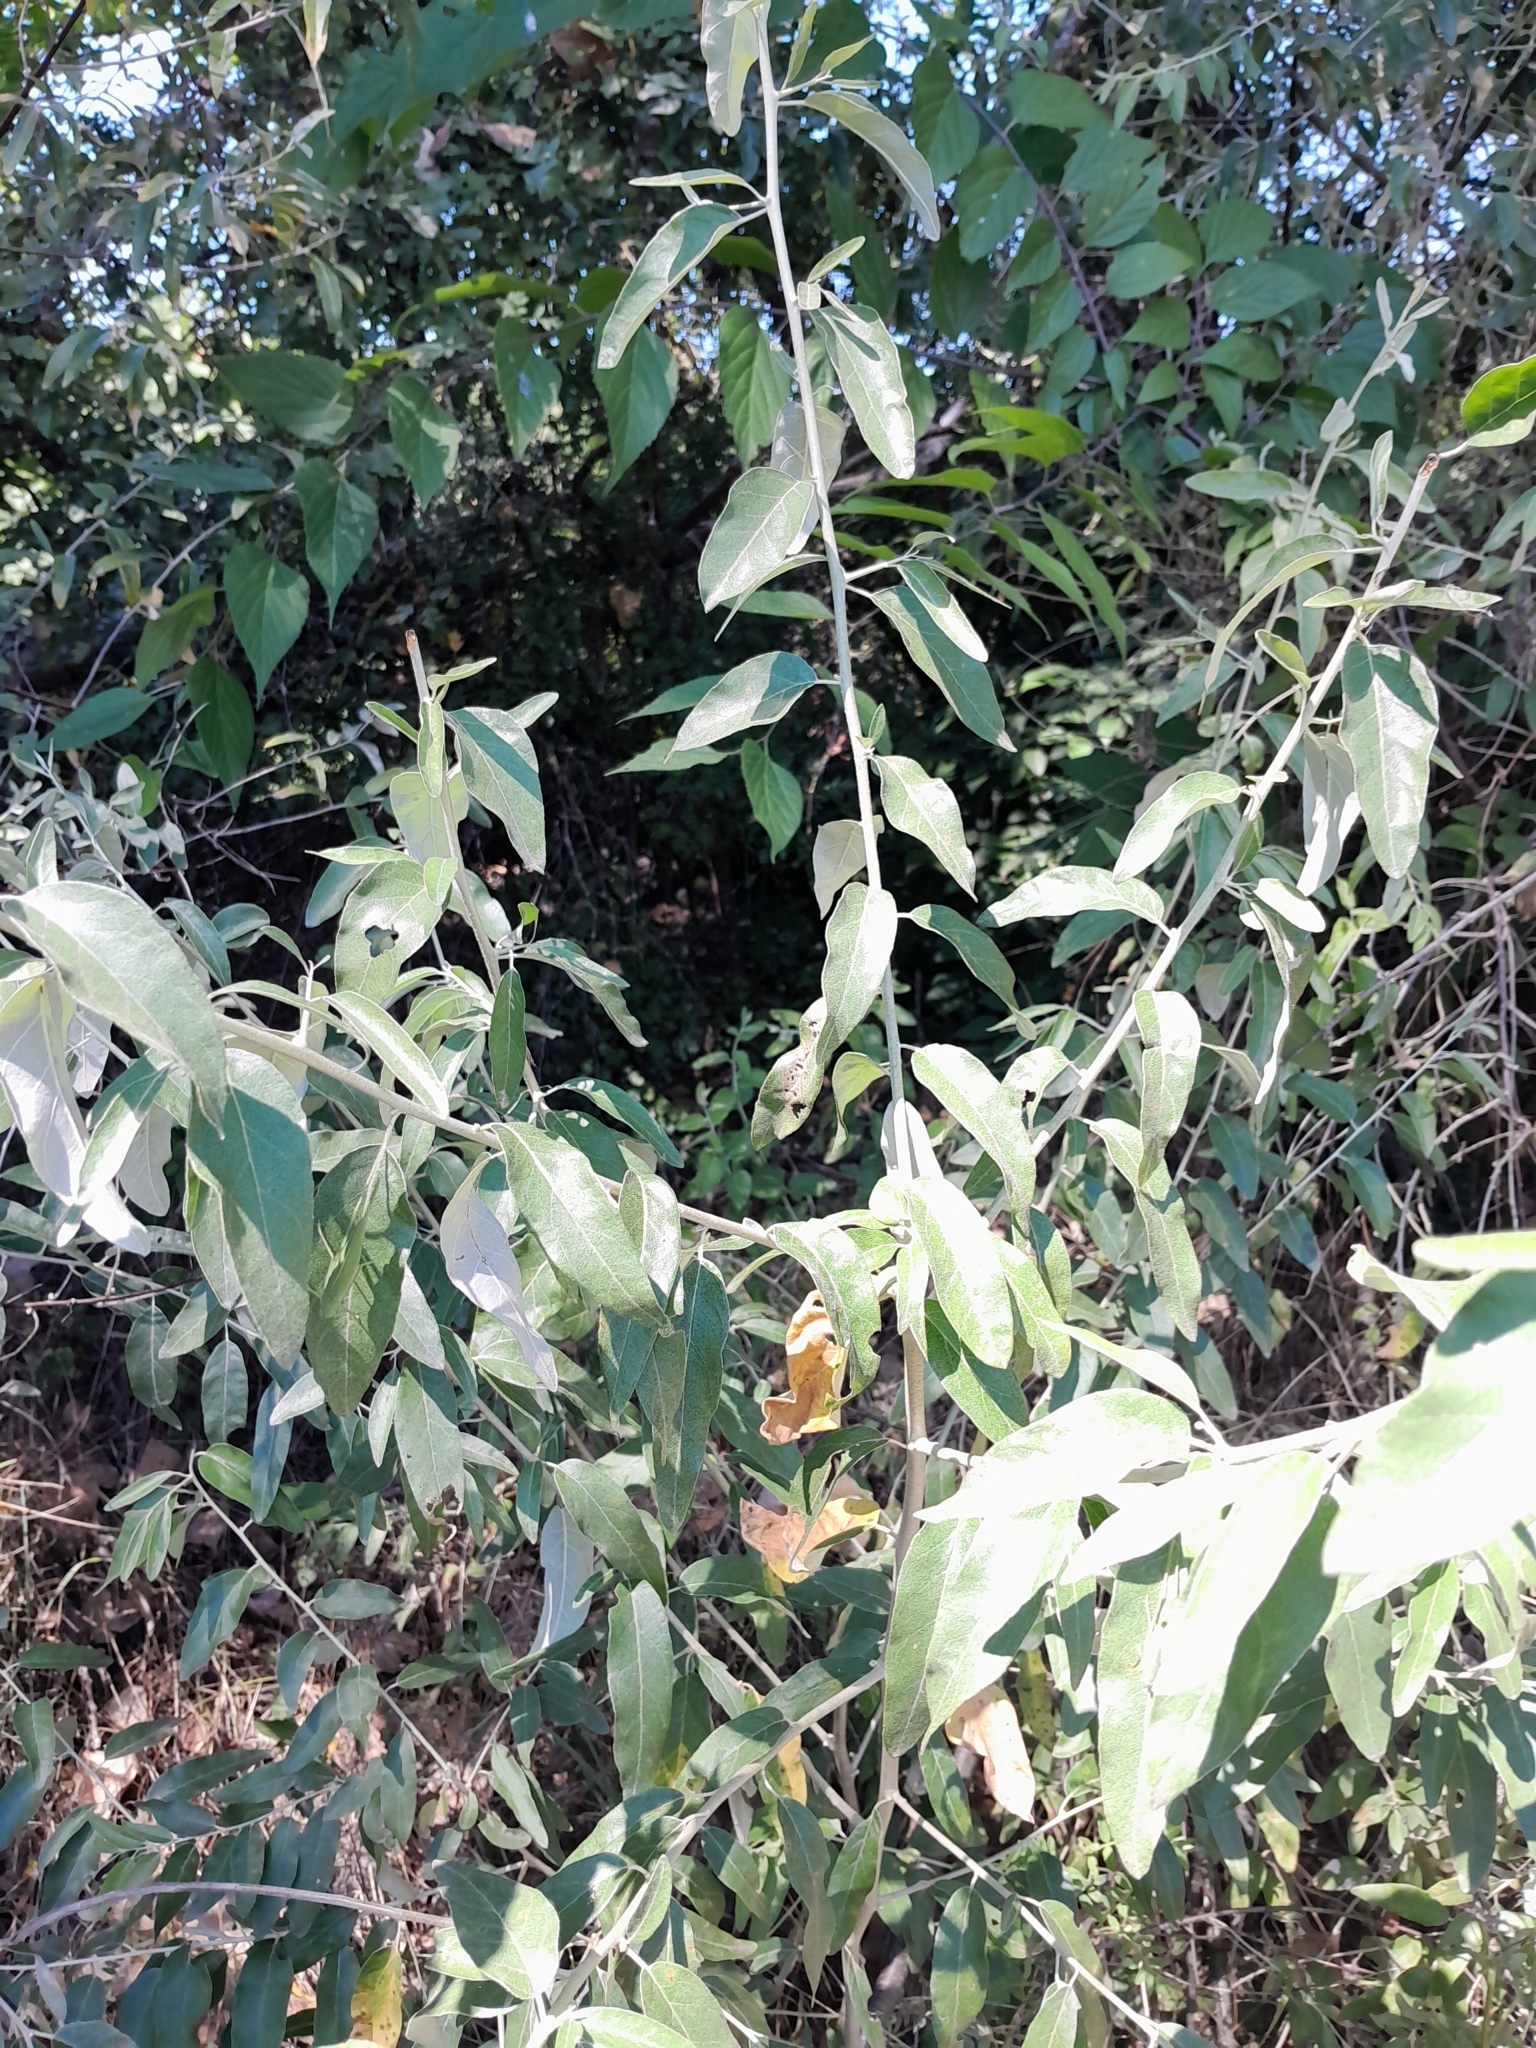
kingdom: Plantae
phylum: Tracheophyta
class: Magnoliopsida
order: Rosales
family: Elaeagnaceae
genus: Elaeagnus
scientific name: Elaeagnus angustifolia
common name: Russian olive
